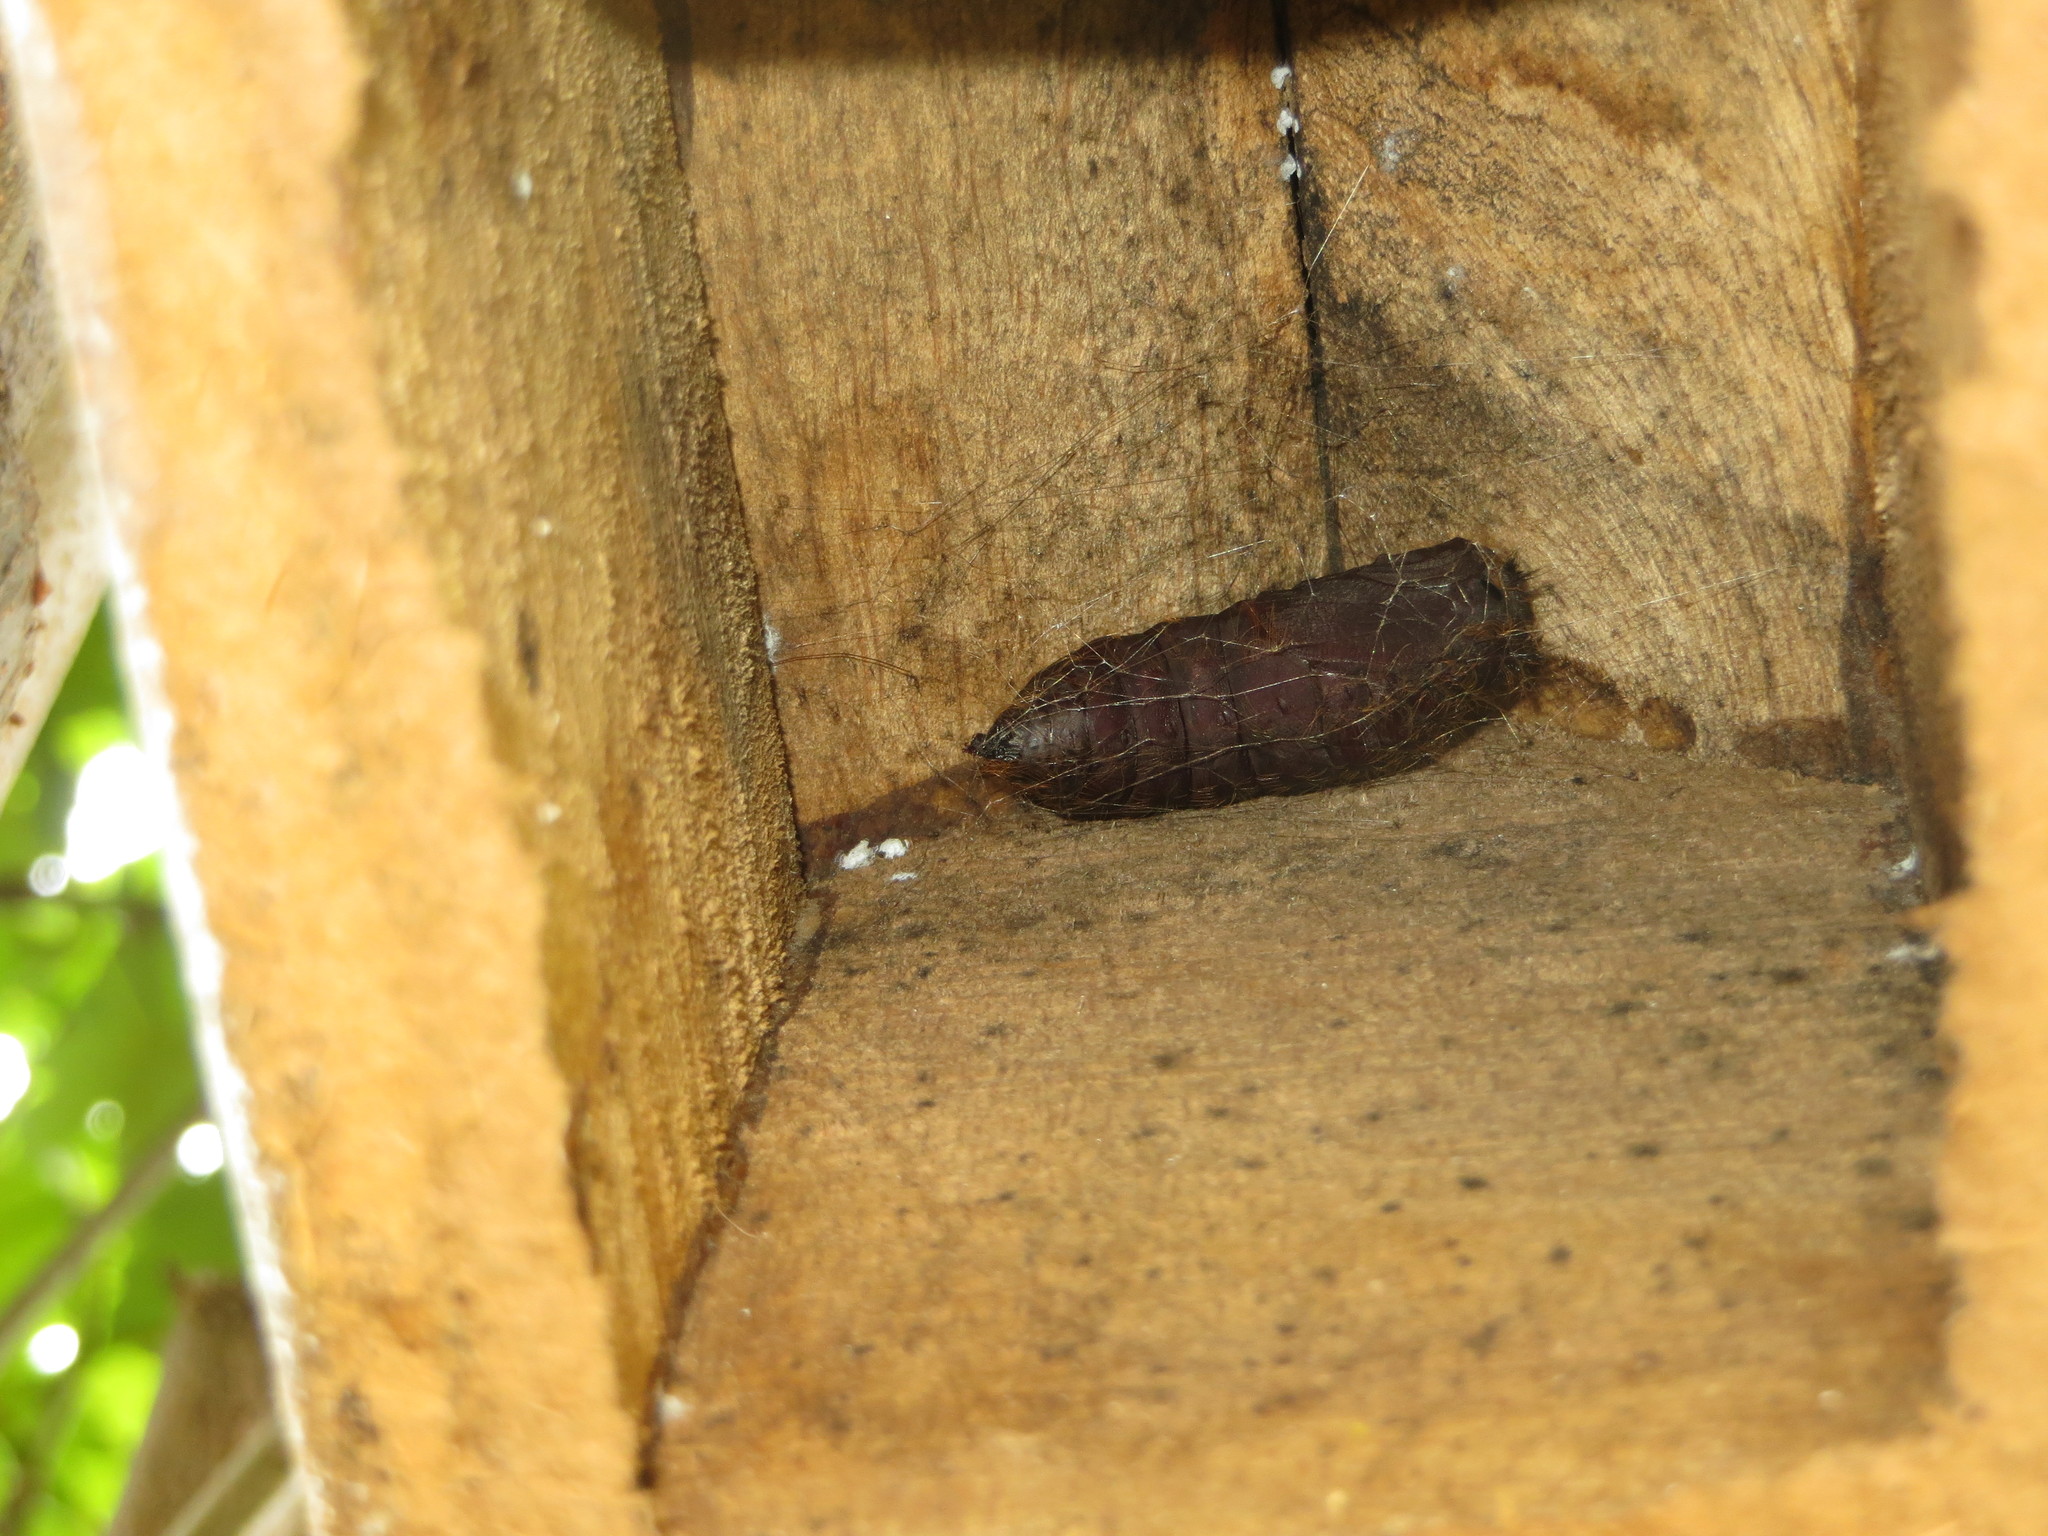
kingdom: Animalia
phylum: Arthropoda
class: Insecta
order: Lepidoptera
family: Erebidae
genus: Lymantria
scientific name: Lymantria dispar
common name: Gypsy moth
